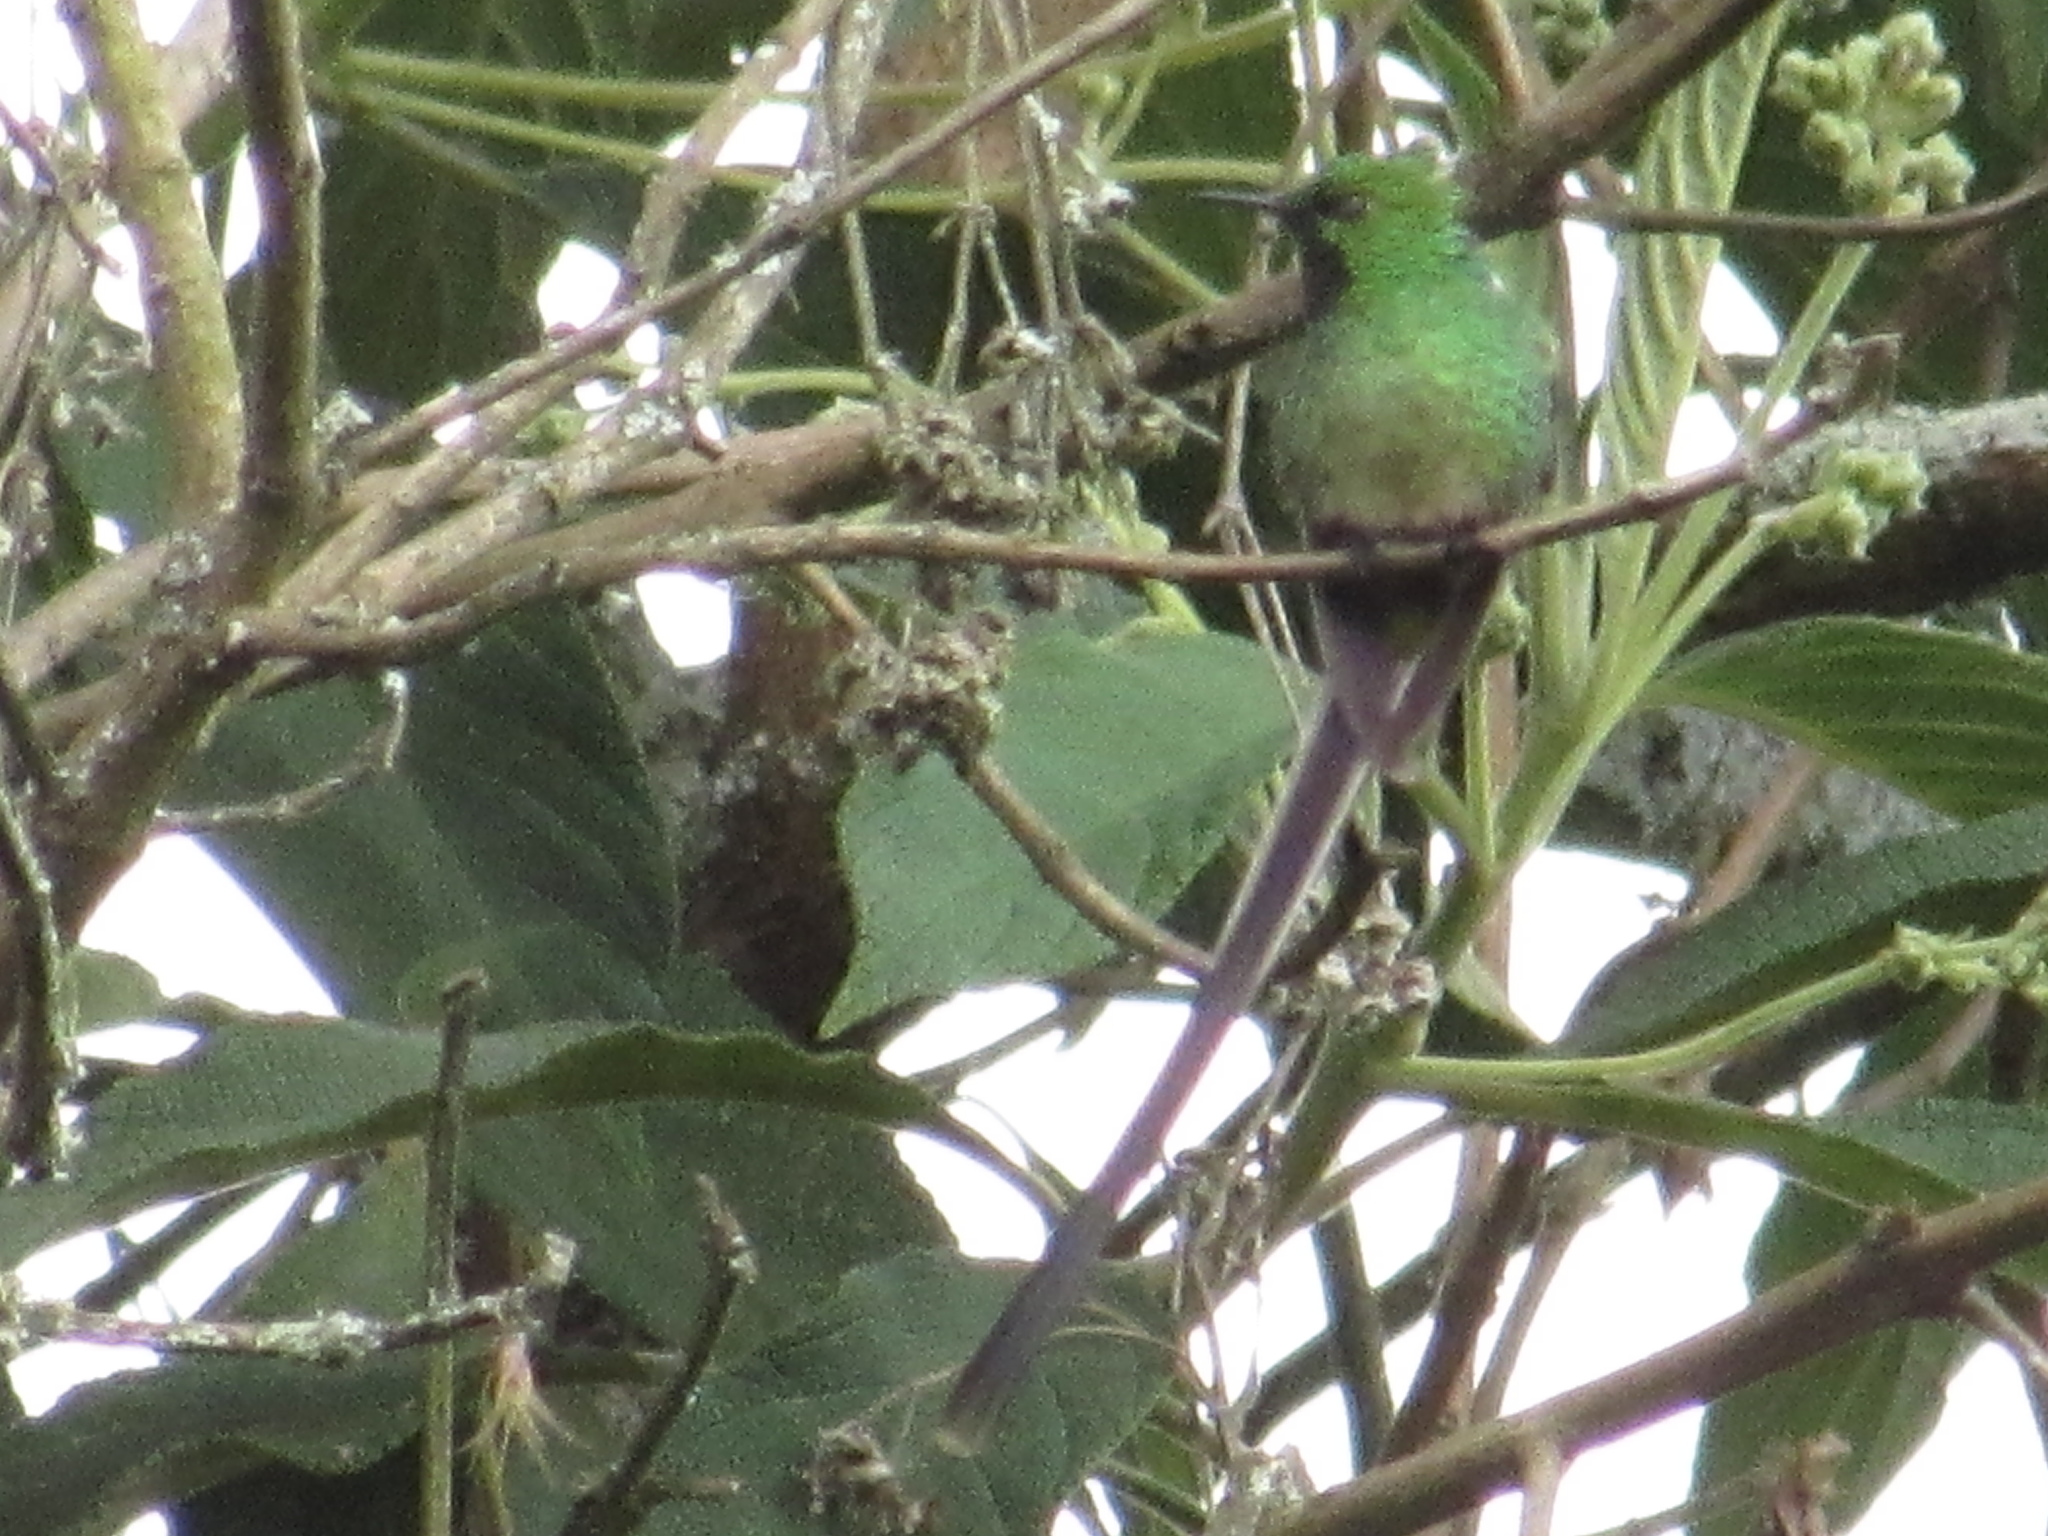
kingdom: Animalia
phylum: Chordata
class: Aves
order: Apodiformes
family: Trochilidae
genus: Lesbia
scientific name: Lesbia victoriae
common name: Black-tailed trainbearer
